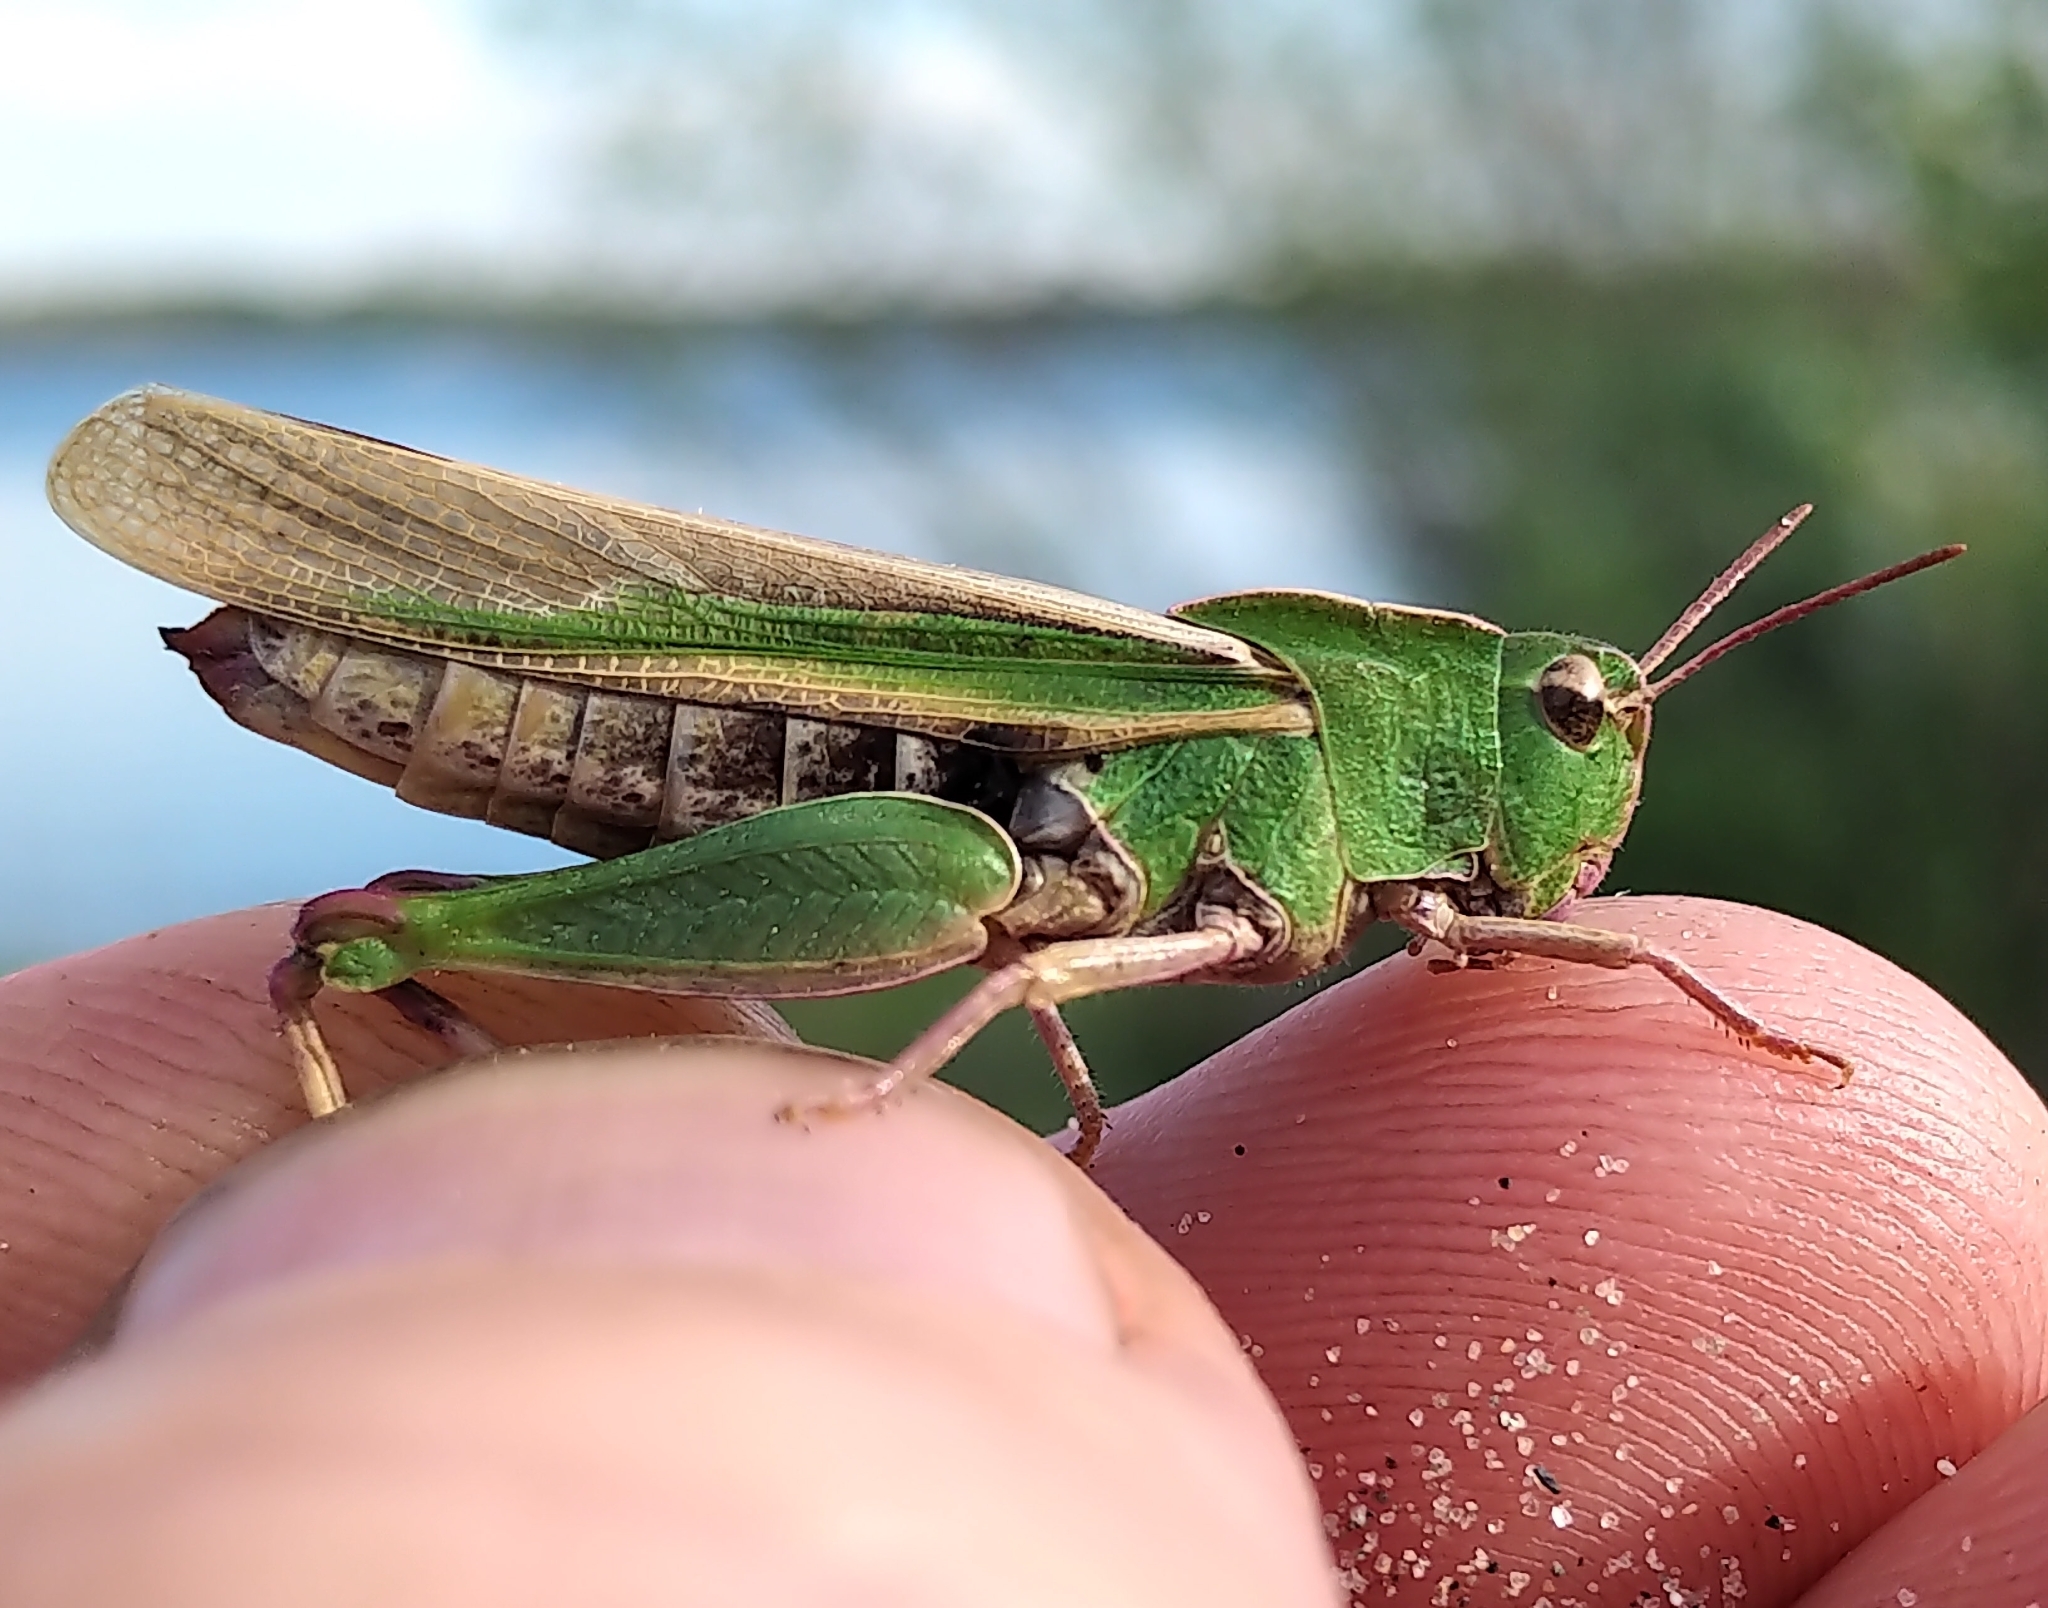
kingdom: Animalia
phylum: Arthropoda
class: Insecta
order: Orthoptera
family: Acrididae
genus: Chortophaga
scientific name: Chortophaga viridifasciata
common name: Green-striped grasshopper
